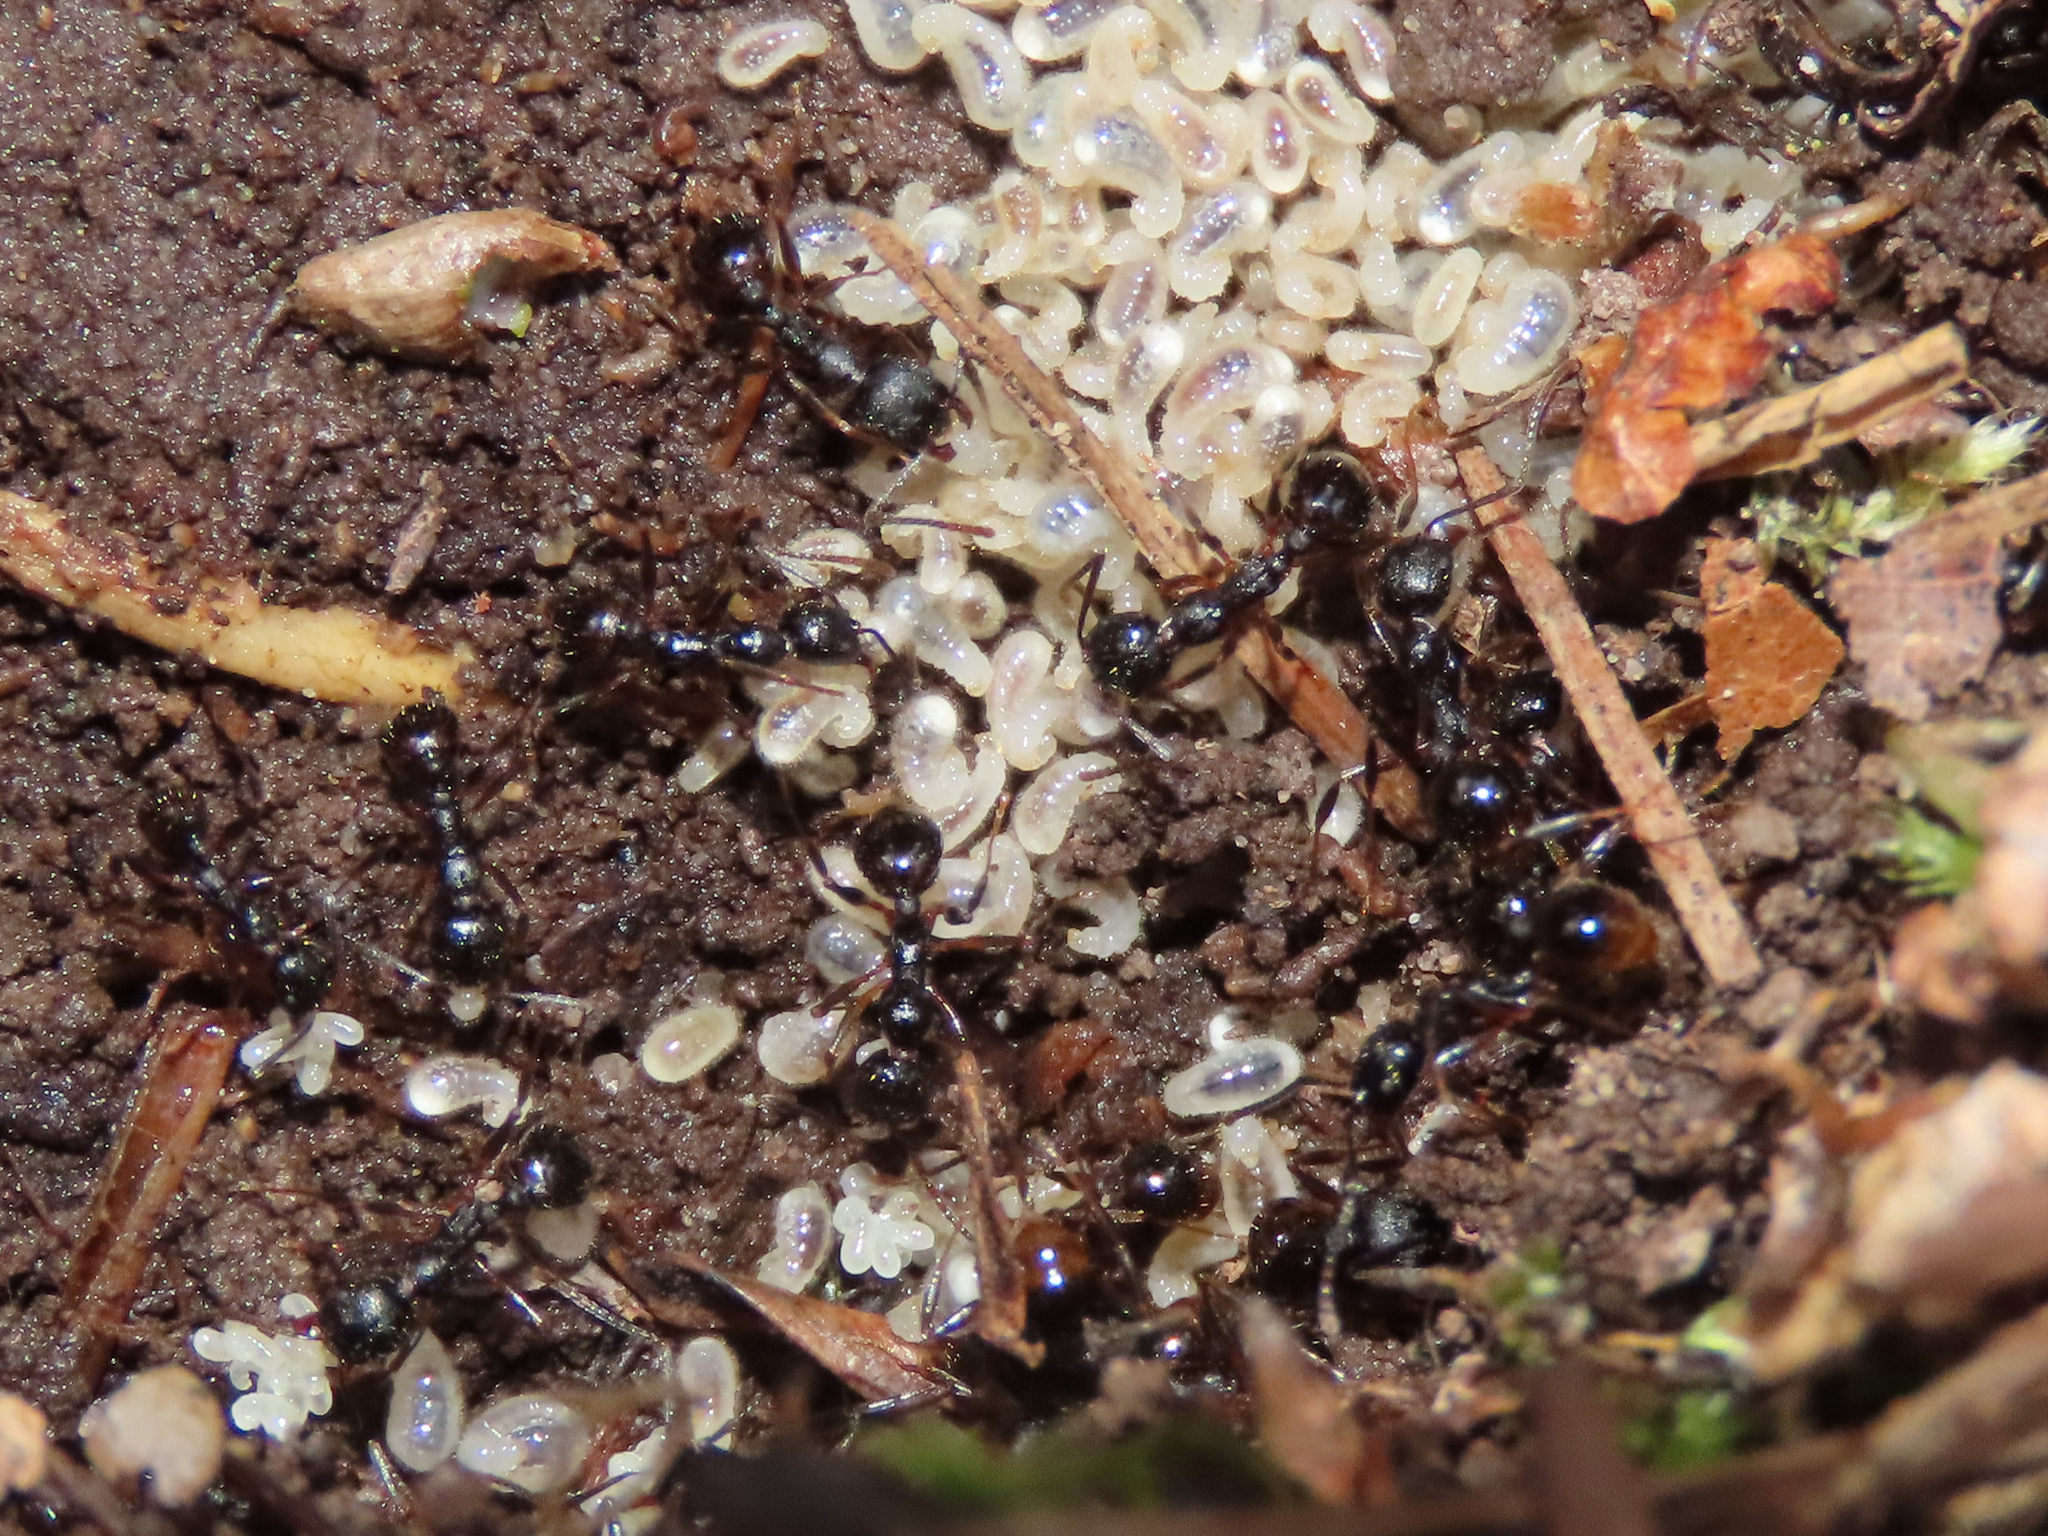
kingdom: Animalia
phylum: Arthropoda
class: Insecta
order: Hymenoptera
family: Formicidae
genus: Aphaenogaster
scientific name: Aphaenogaster picea
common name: Pitch-black collared ant
